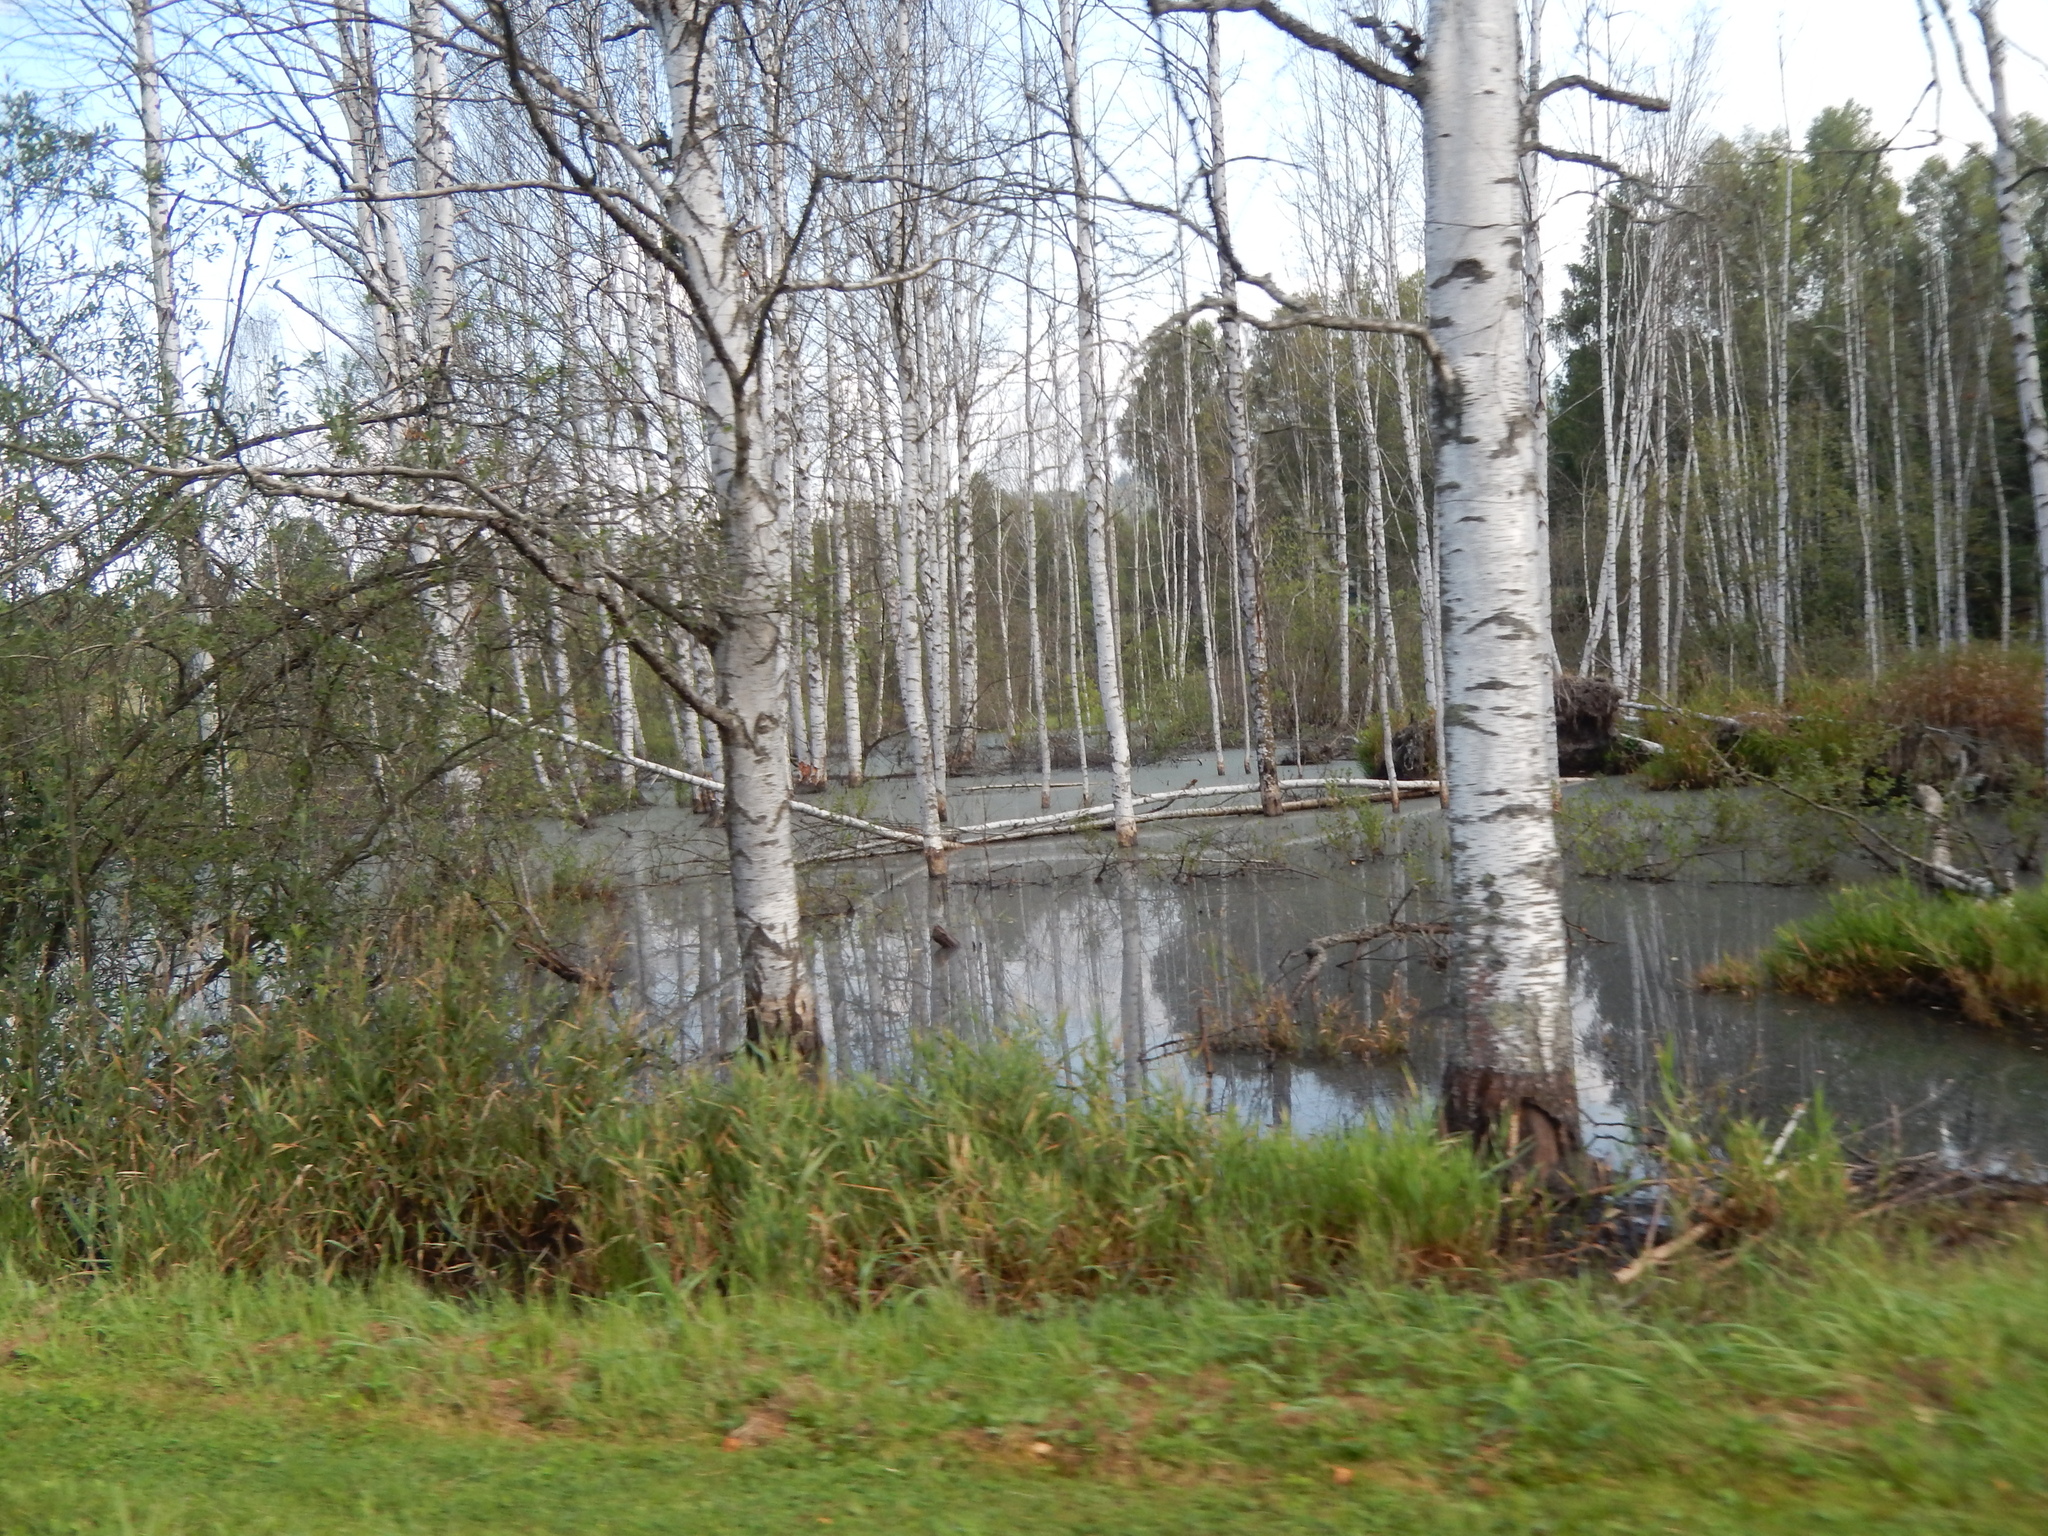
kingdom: Plantae
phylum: Tracheophyta
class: Magnoliopsida
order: Fagales
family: Betulaceae
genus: Betula
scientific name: Betula pendula
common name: Silver birch
